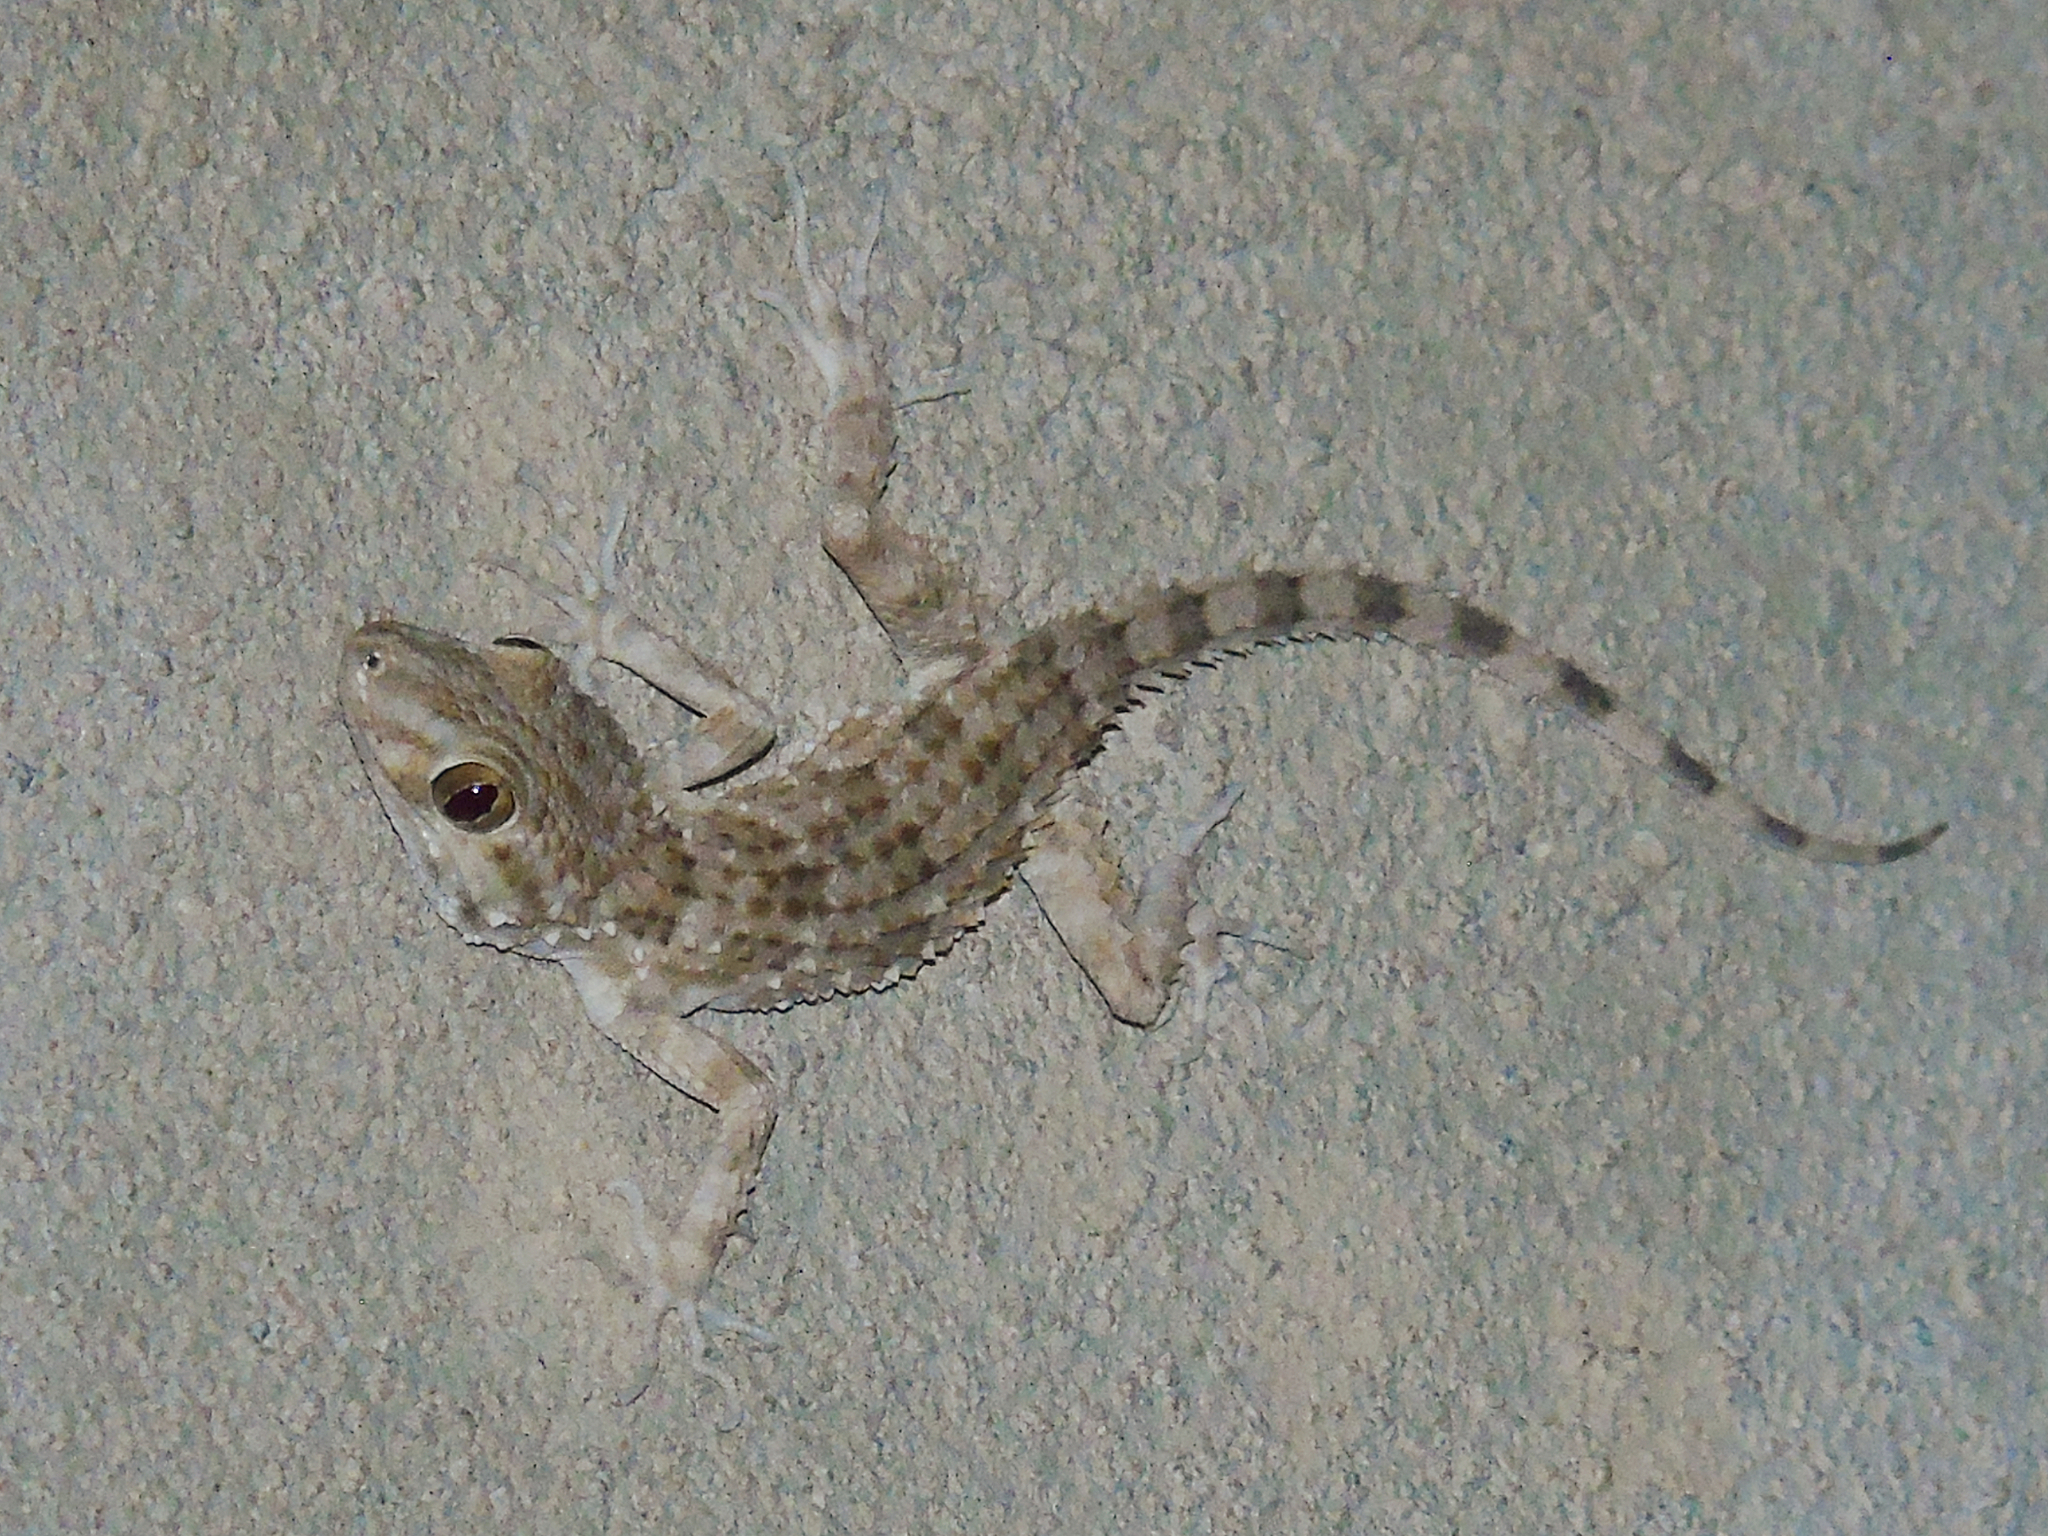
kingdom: Animalia
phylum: Chordata
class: Squamata
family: Gekkonidae
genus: Tenuidactylus
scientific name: Tenuidactylus caspius
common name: Caspian bent-toed gecko
